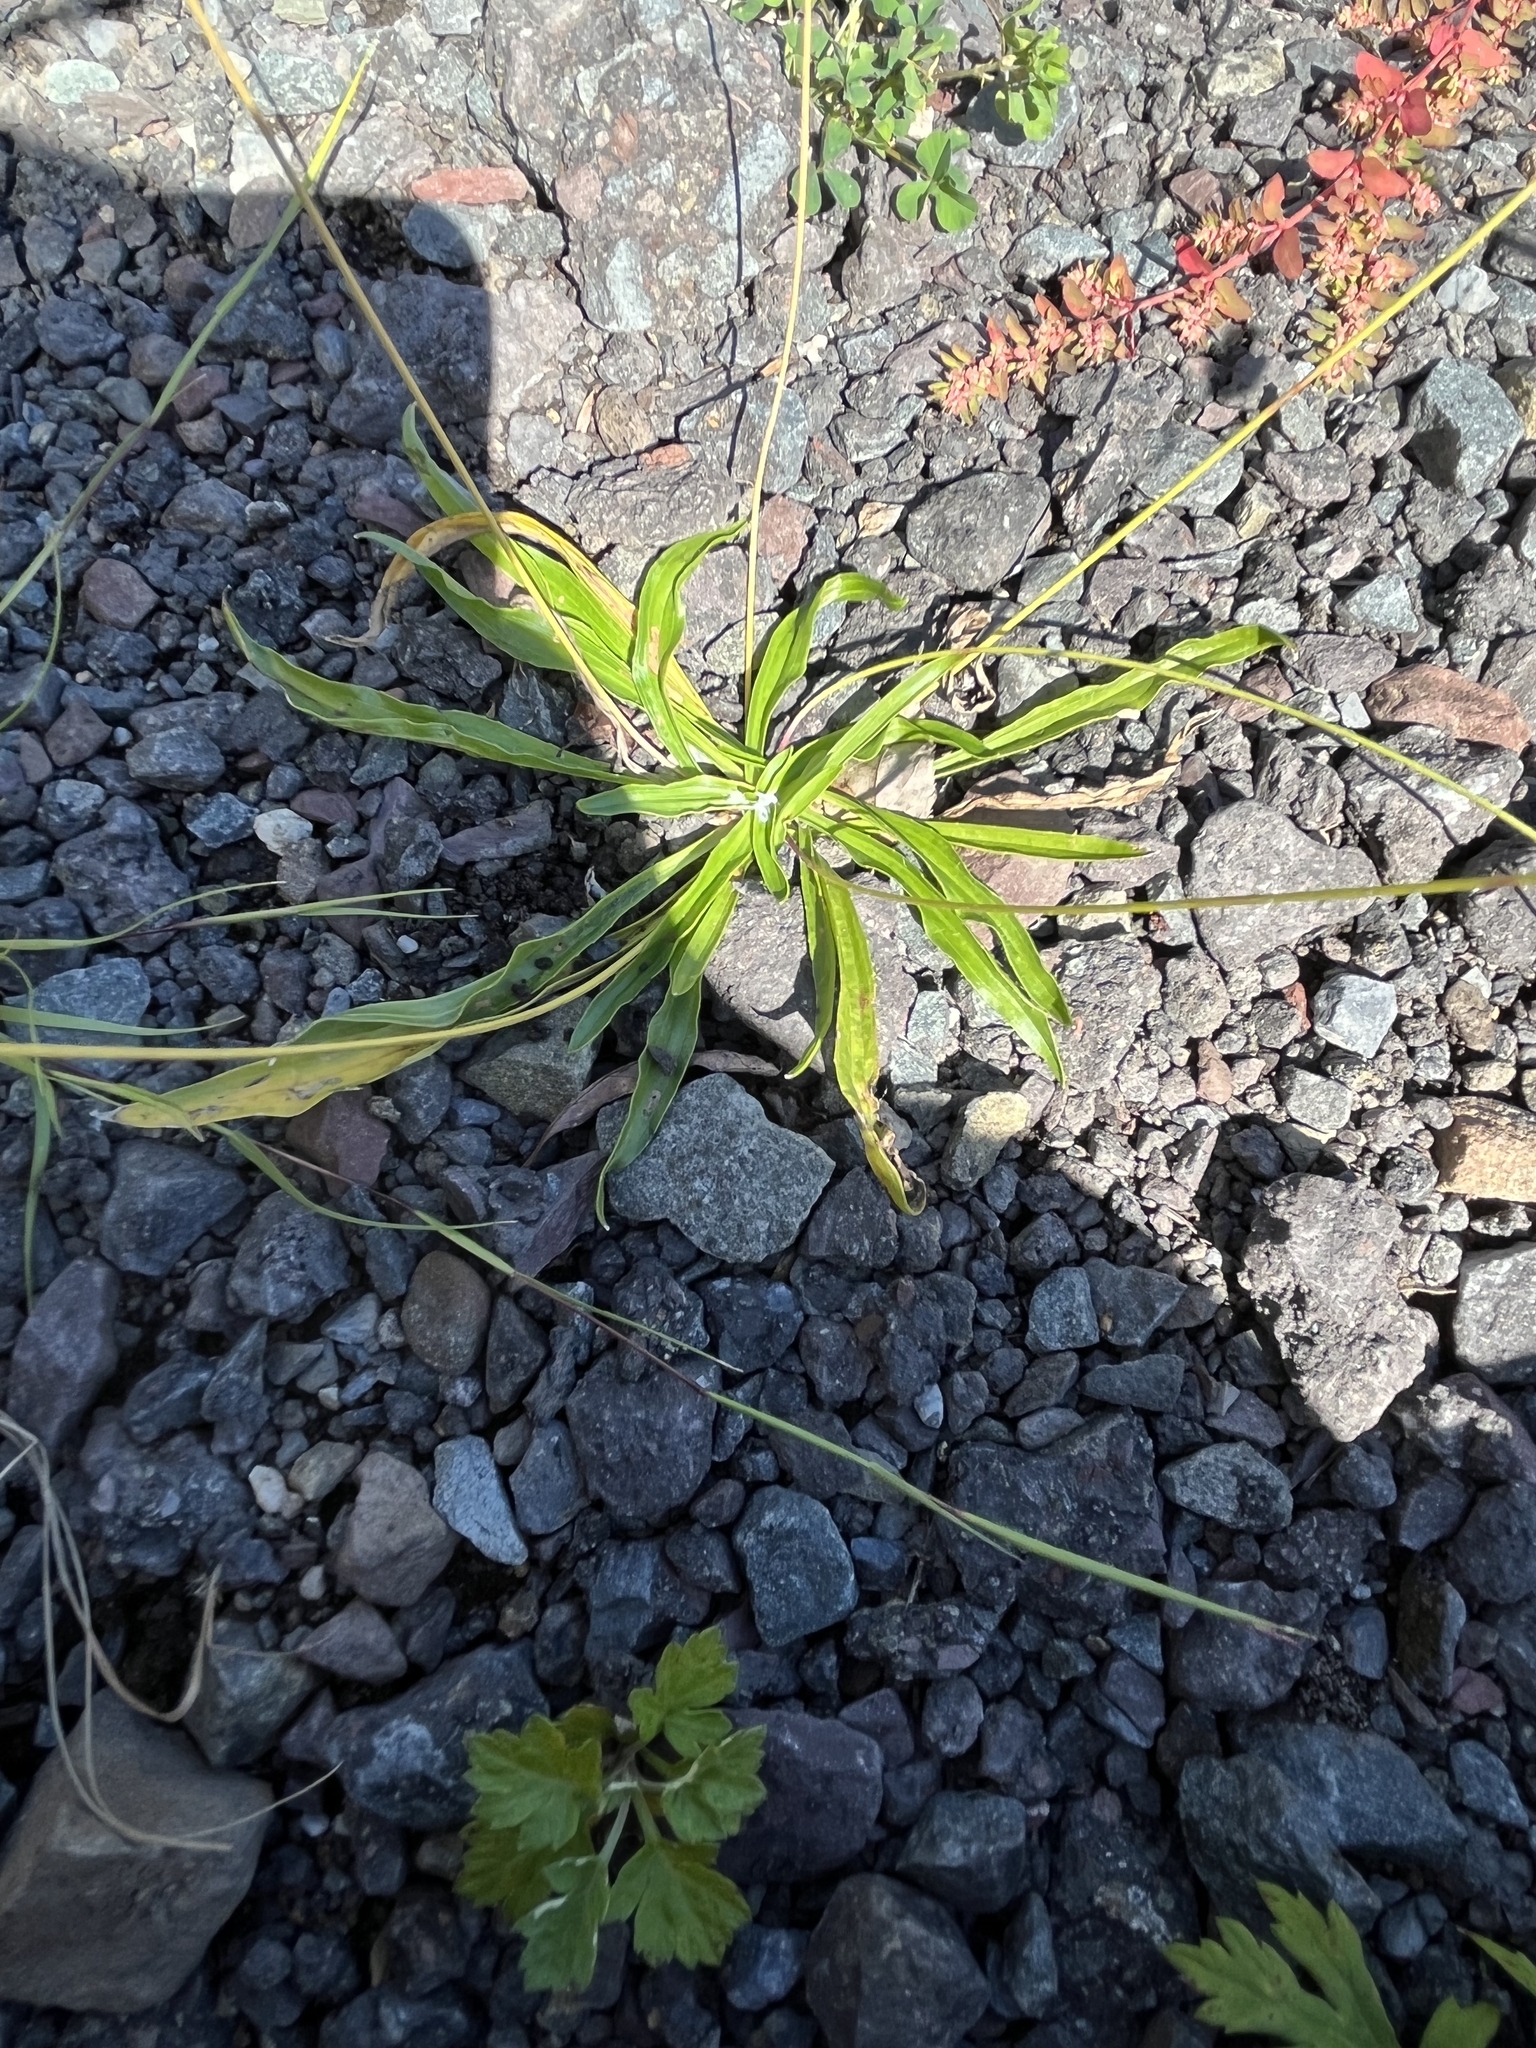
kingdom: Plantae
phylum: Tracheophyta
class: Magnoliopsida
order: Lamiales
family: Plantaginaceae
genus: Plantago
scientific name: Plantago lanceolata
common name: Ribwort plantain
